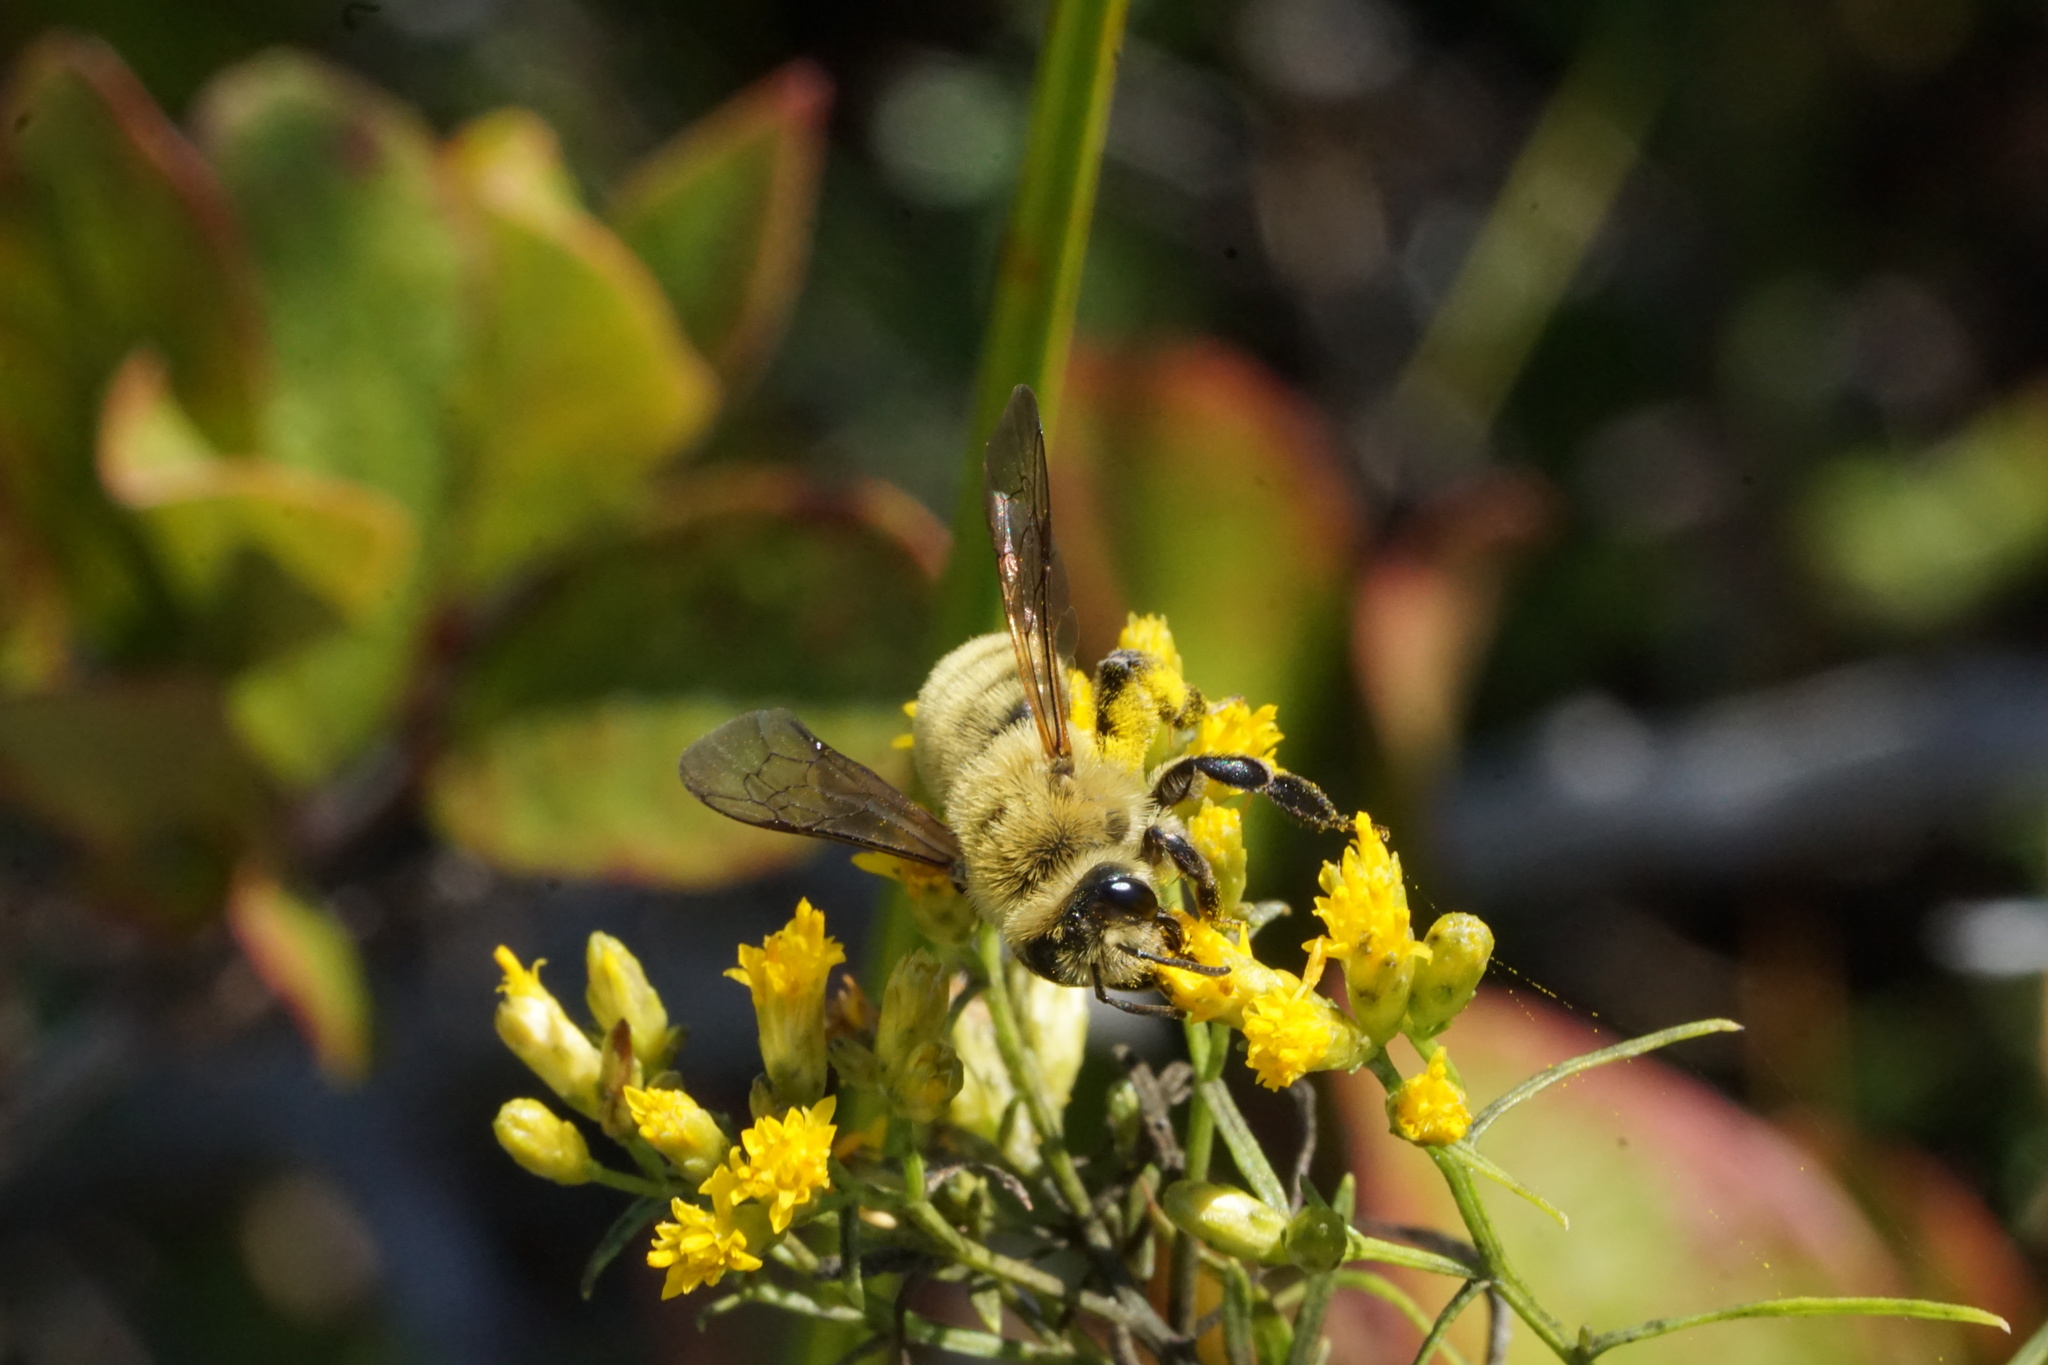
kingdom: Animalia
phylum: Arthropoda
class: Insecta
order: Hymenoptera
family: Andrenidae
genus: Andrena
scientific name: Andrena hirticincta
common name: Hairy-banded mining bee
